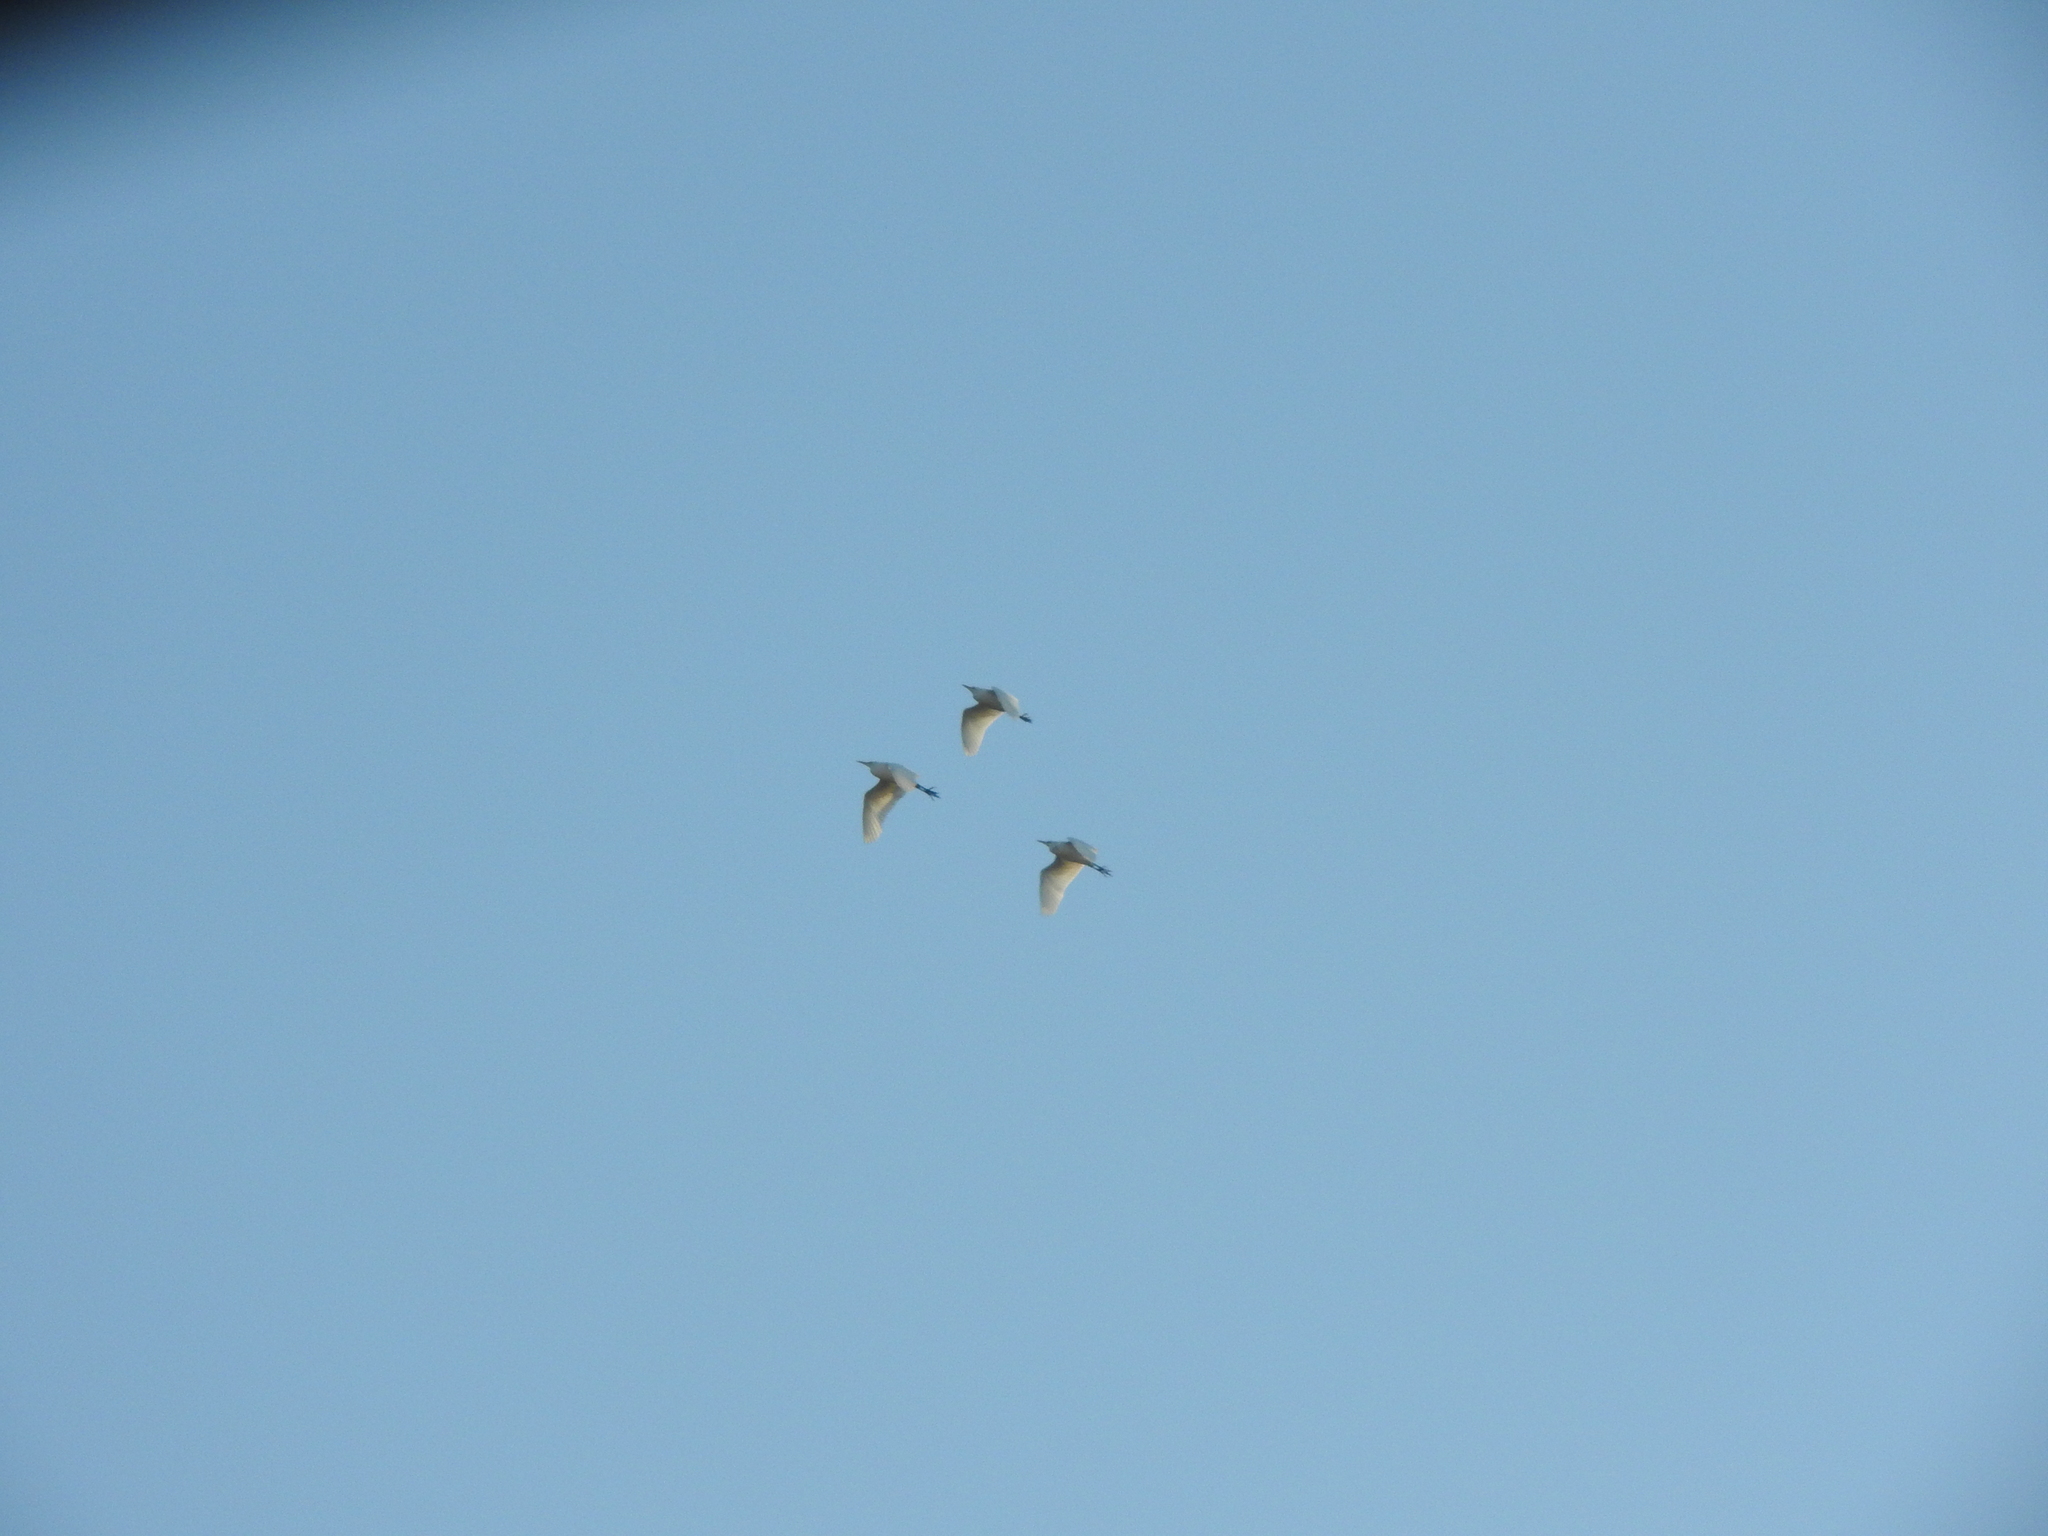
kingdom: Animalia
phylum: Chordata
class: Aves
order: Pelecaniformes
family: Ardeidae
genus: Bubulcus
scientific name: Bubulcus ibis
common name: Cattle egret
